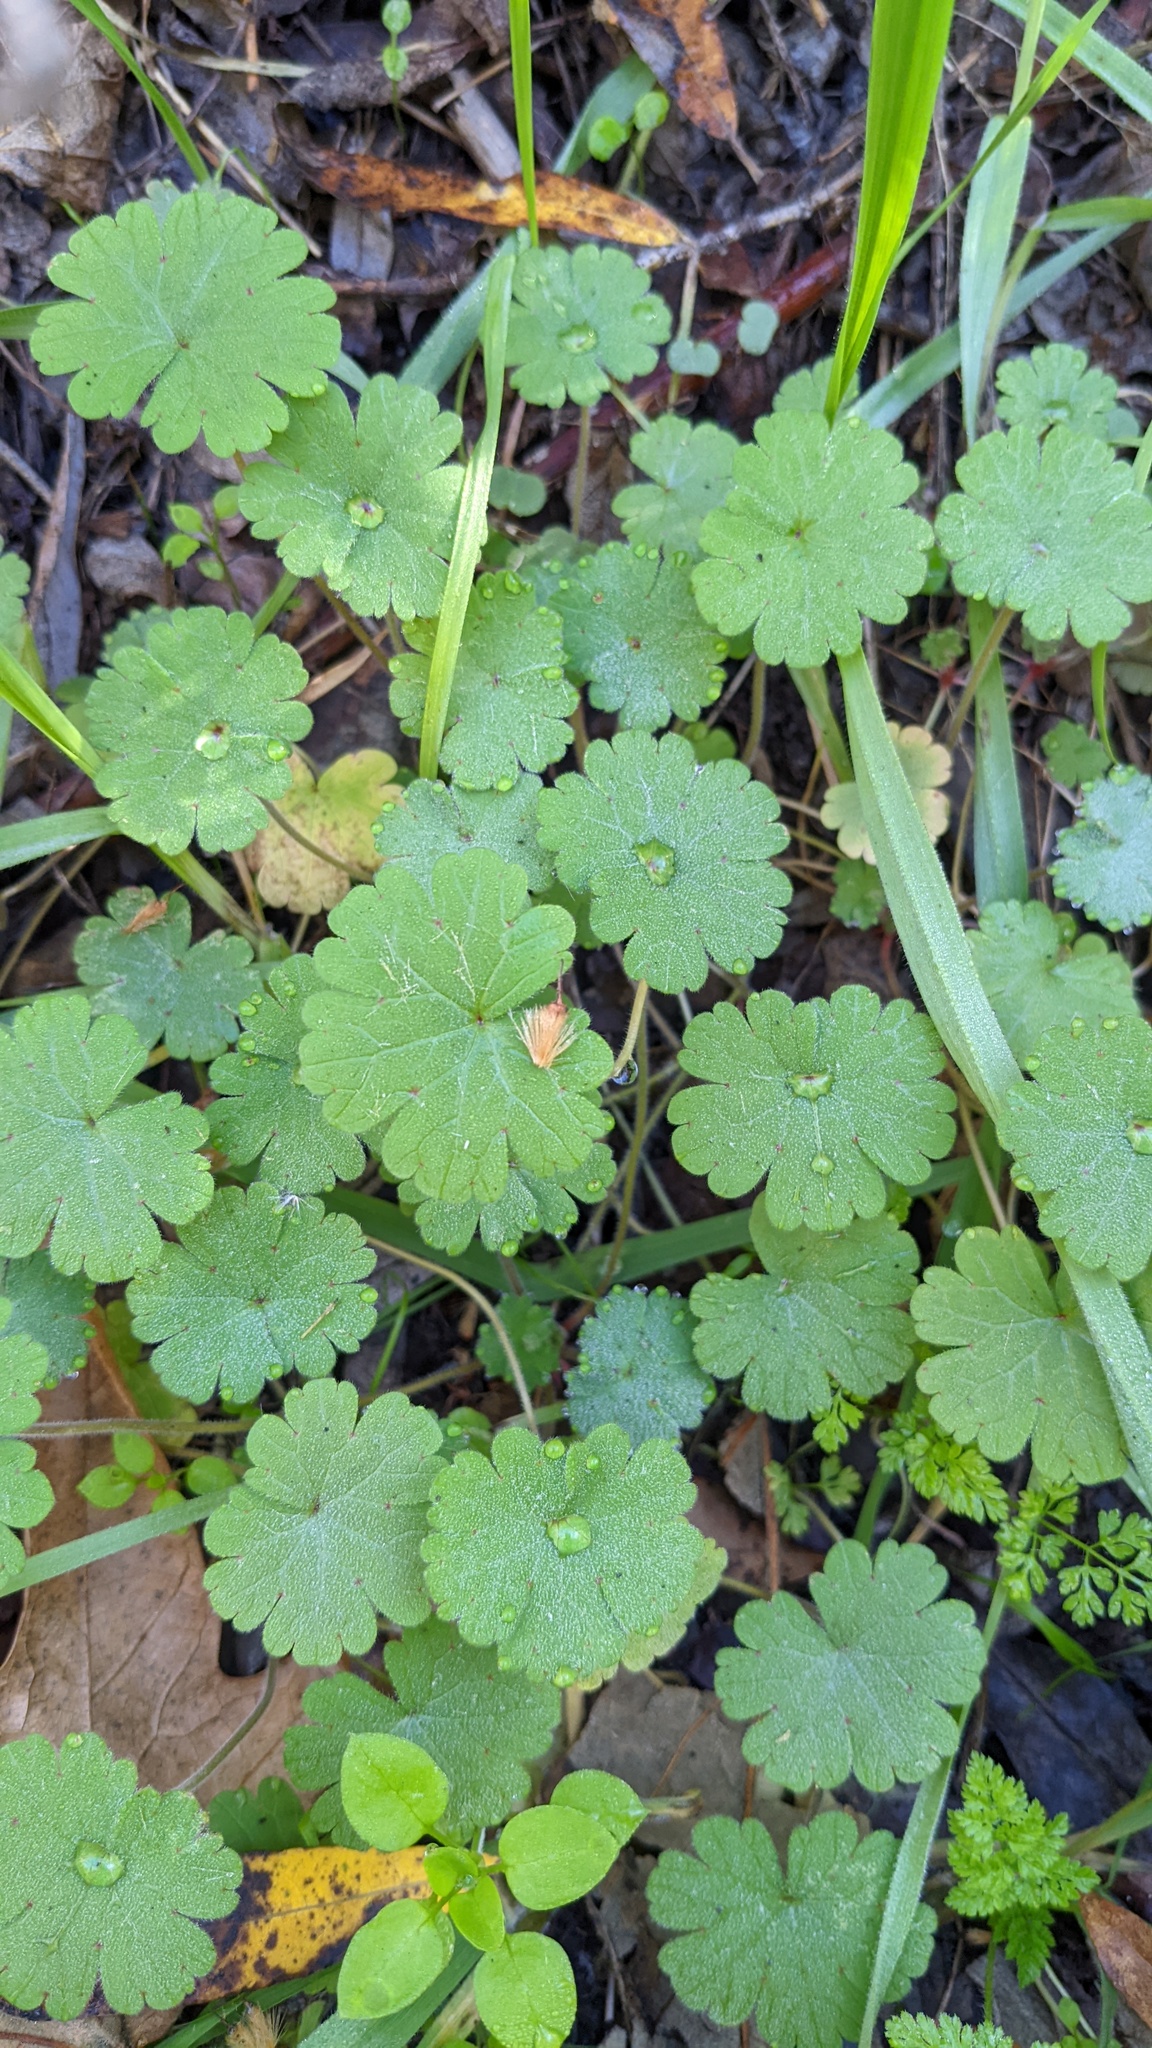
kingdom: Plantae
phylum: Tracheophyta
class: Magnoliopsida
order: Geraniales
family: Geraniaceae
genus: Geranium
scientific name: Geranium
